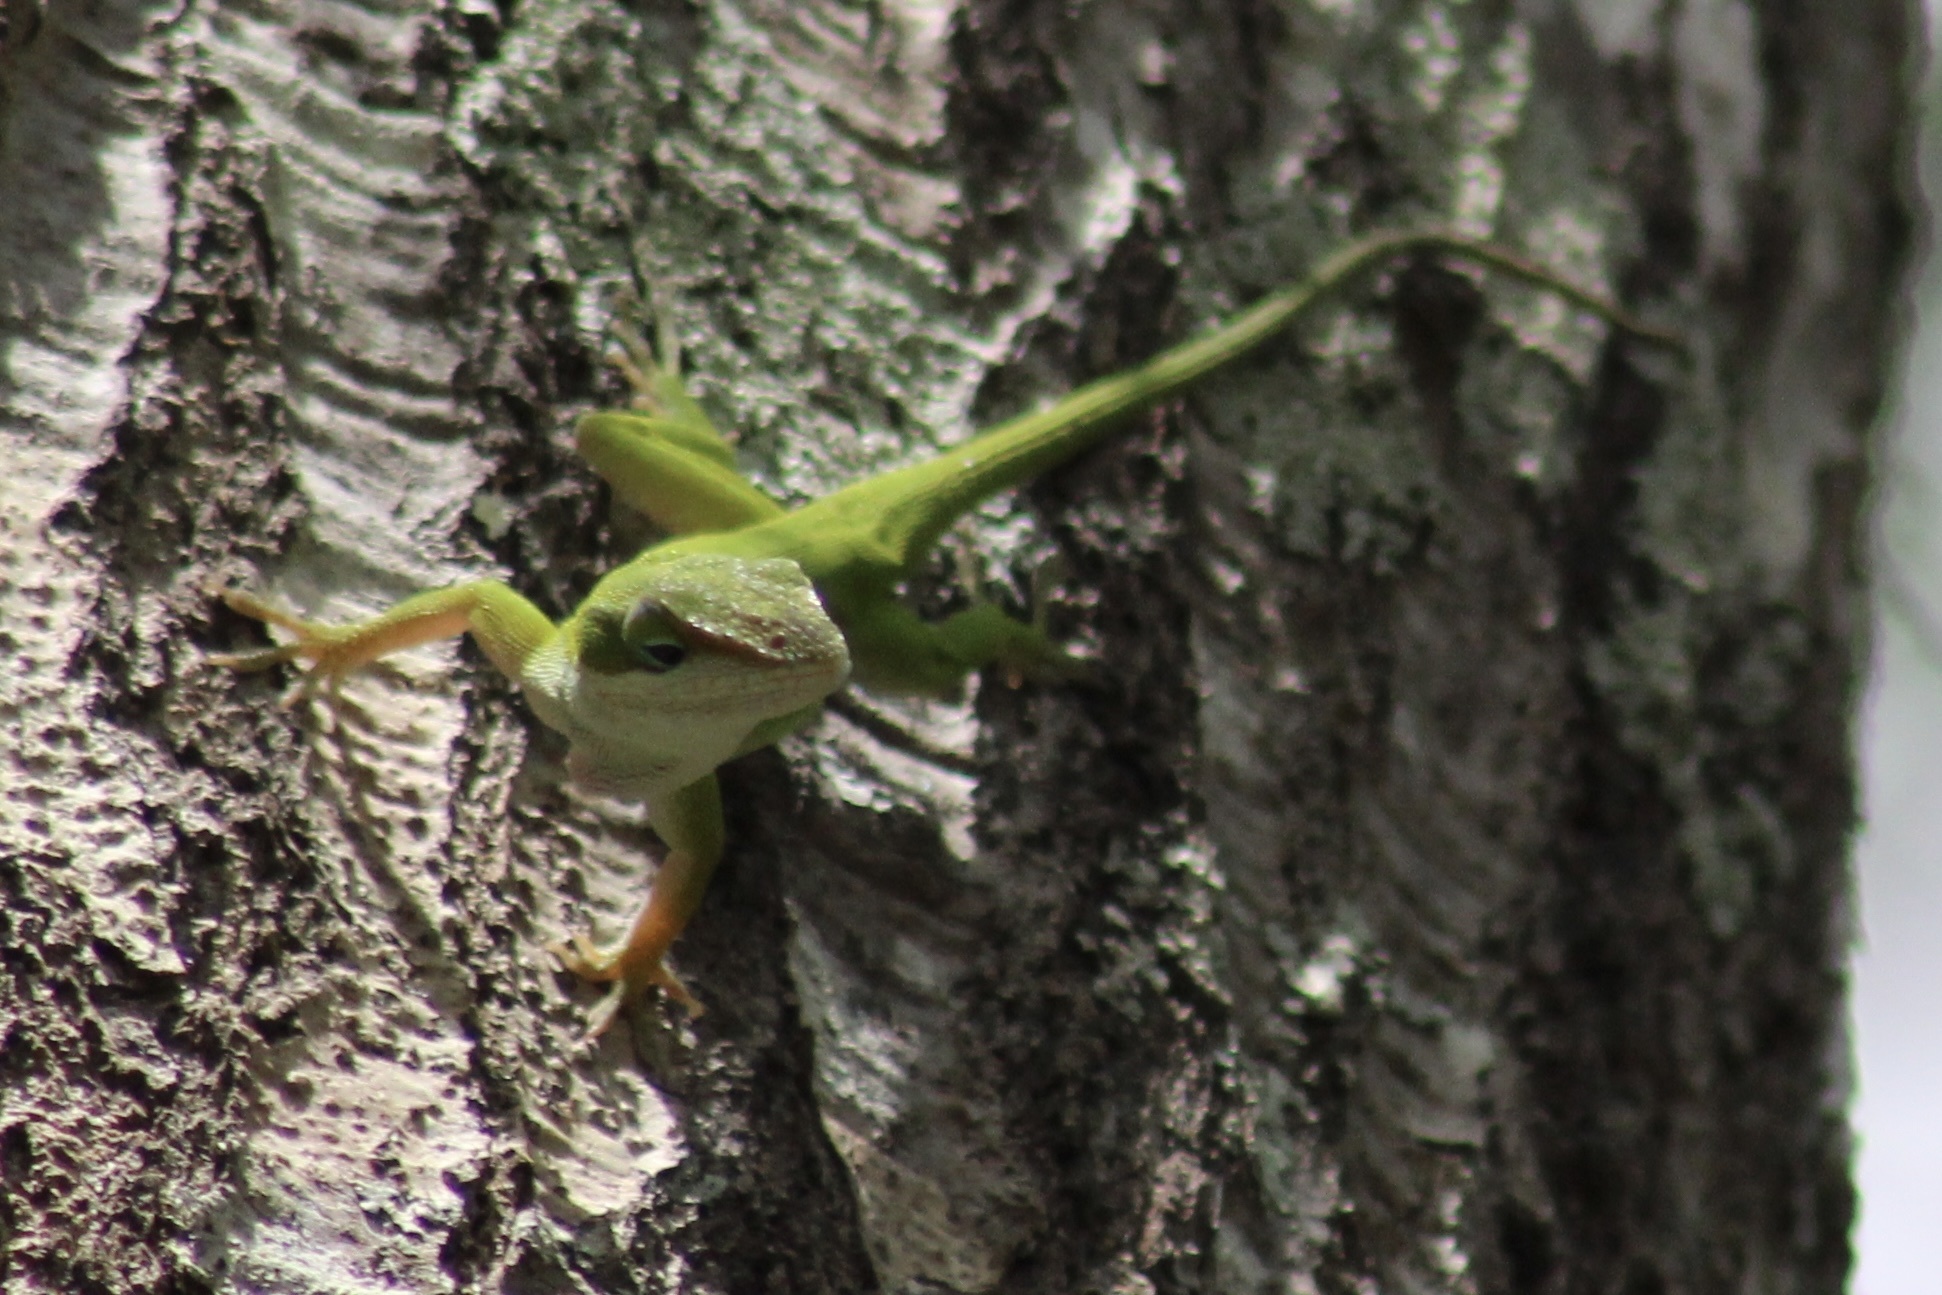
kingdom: Animalia
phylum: Chordata
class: Squamata
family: Dactyloidae
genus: Anolis
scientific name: Anolis carolinensis
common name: Green anole
